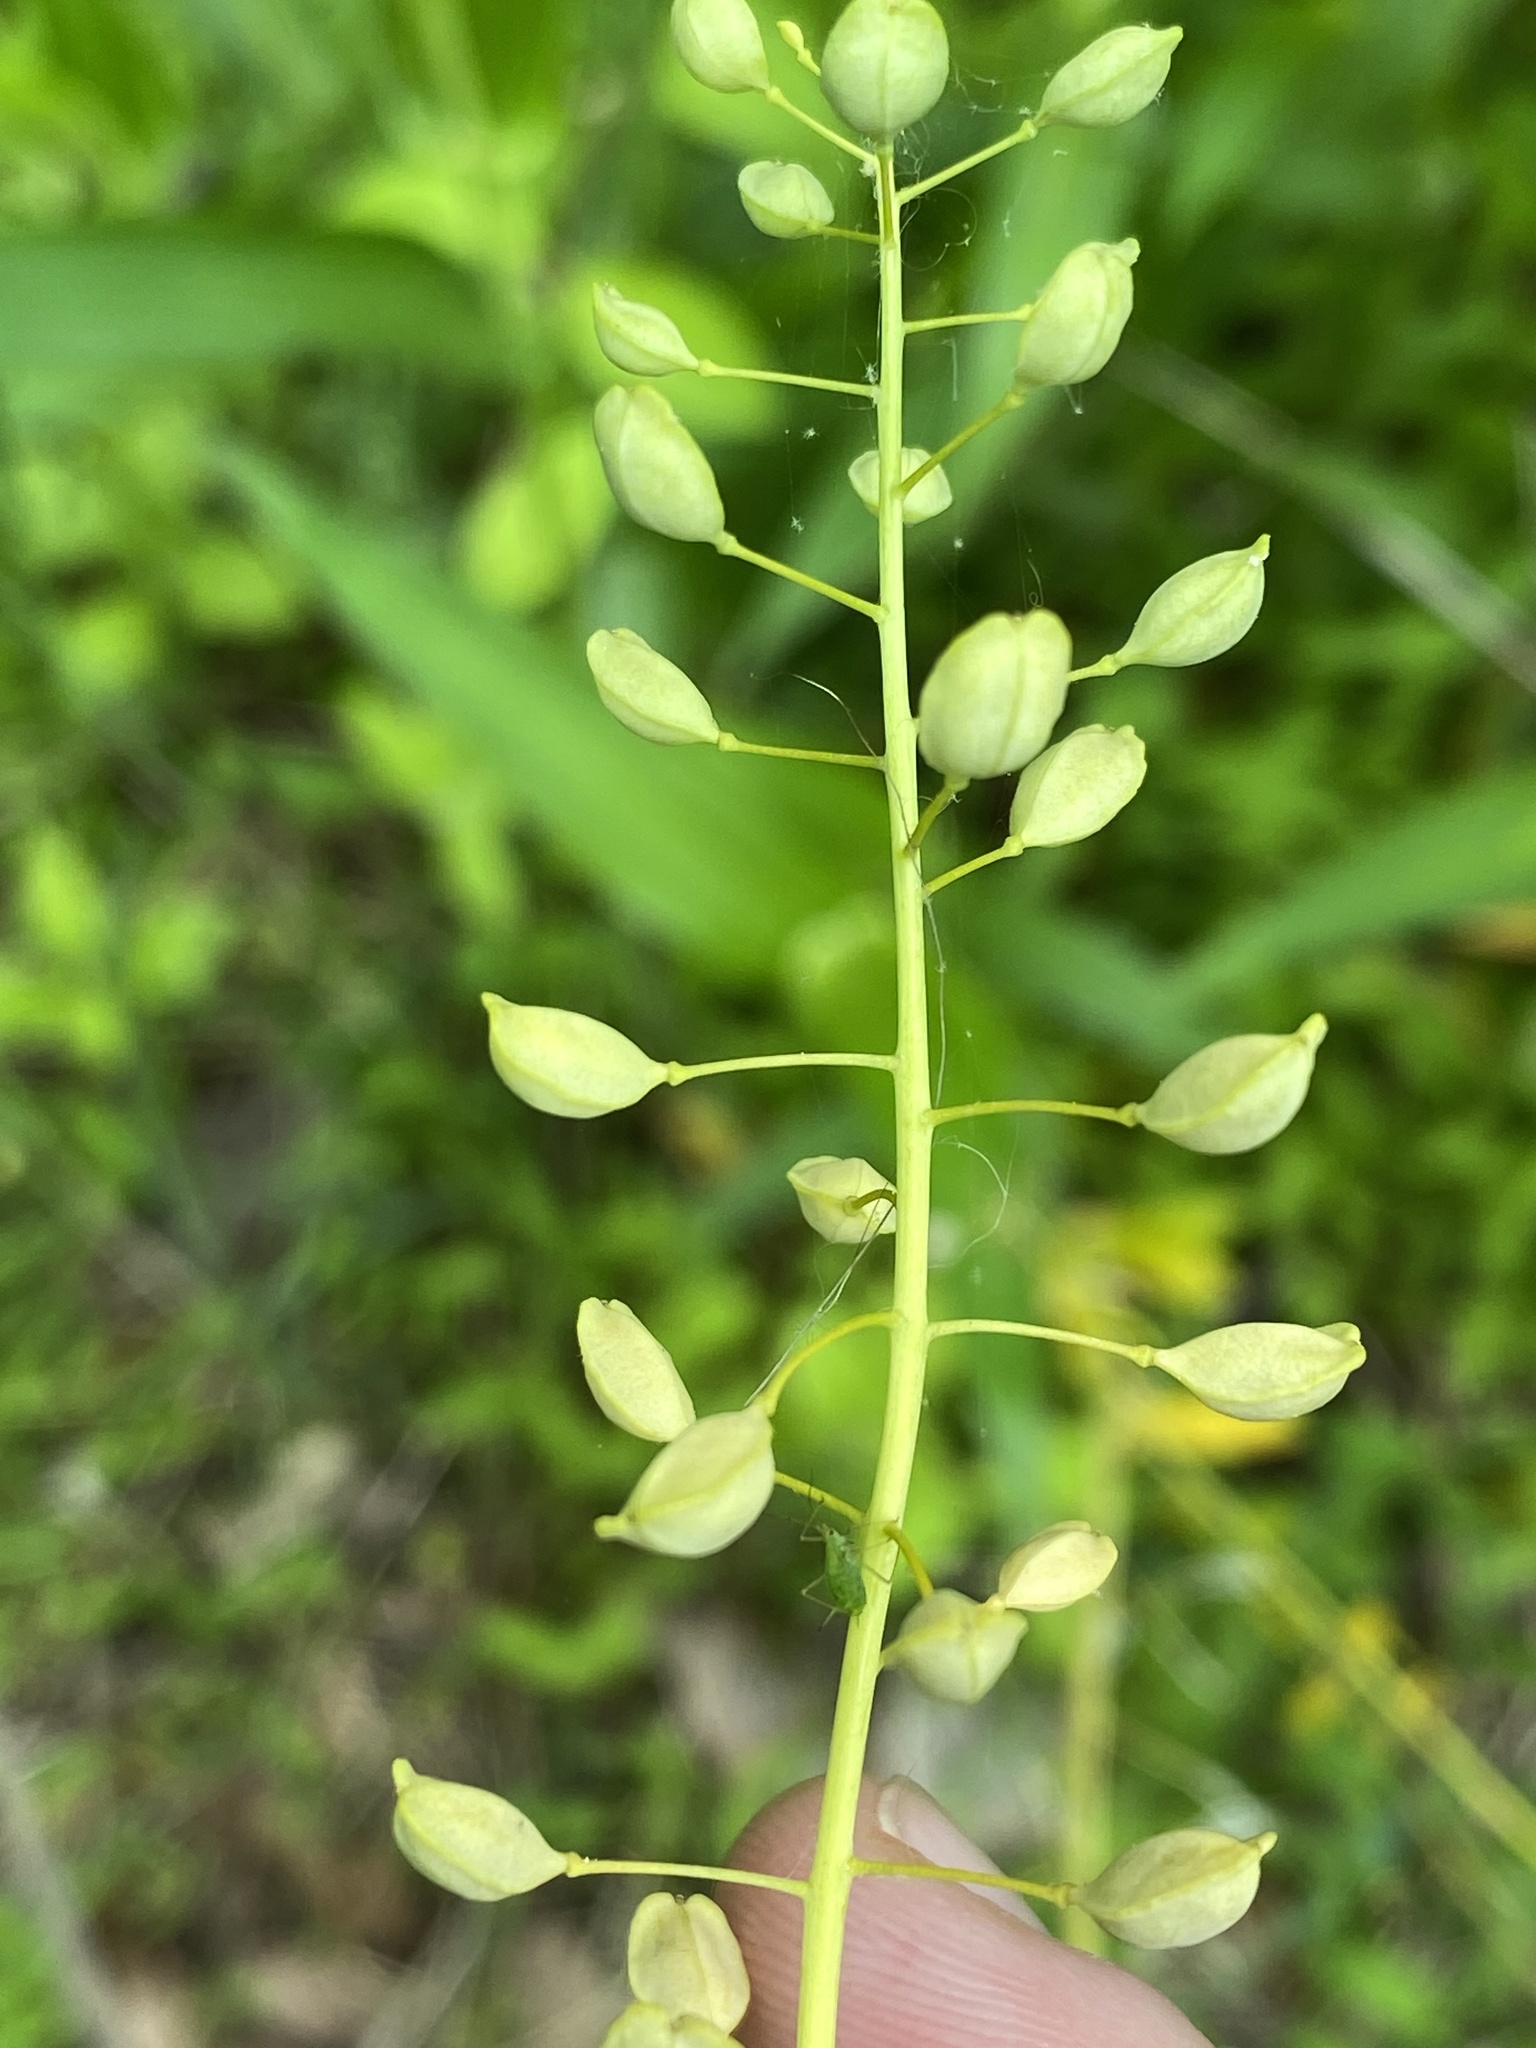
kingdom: Plantae
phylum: Tracheophyta
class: Magnoliopsida
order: Brassicales
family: Brassicaceae
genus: Mummenhoffia
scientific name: Mummenhoffia alliacea
